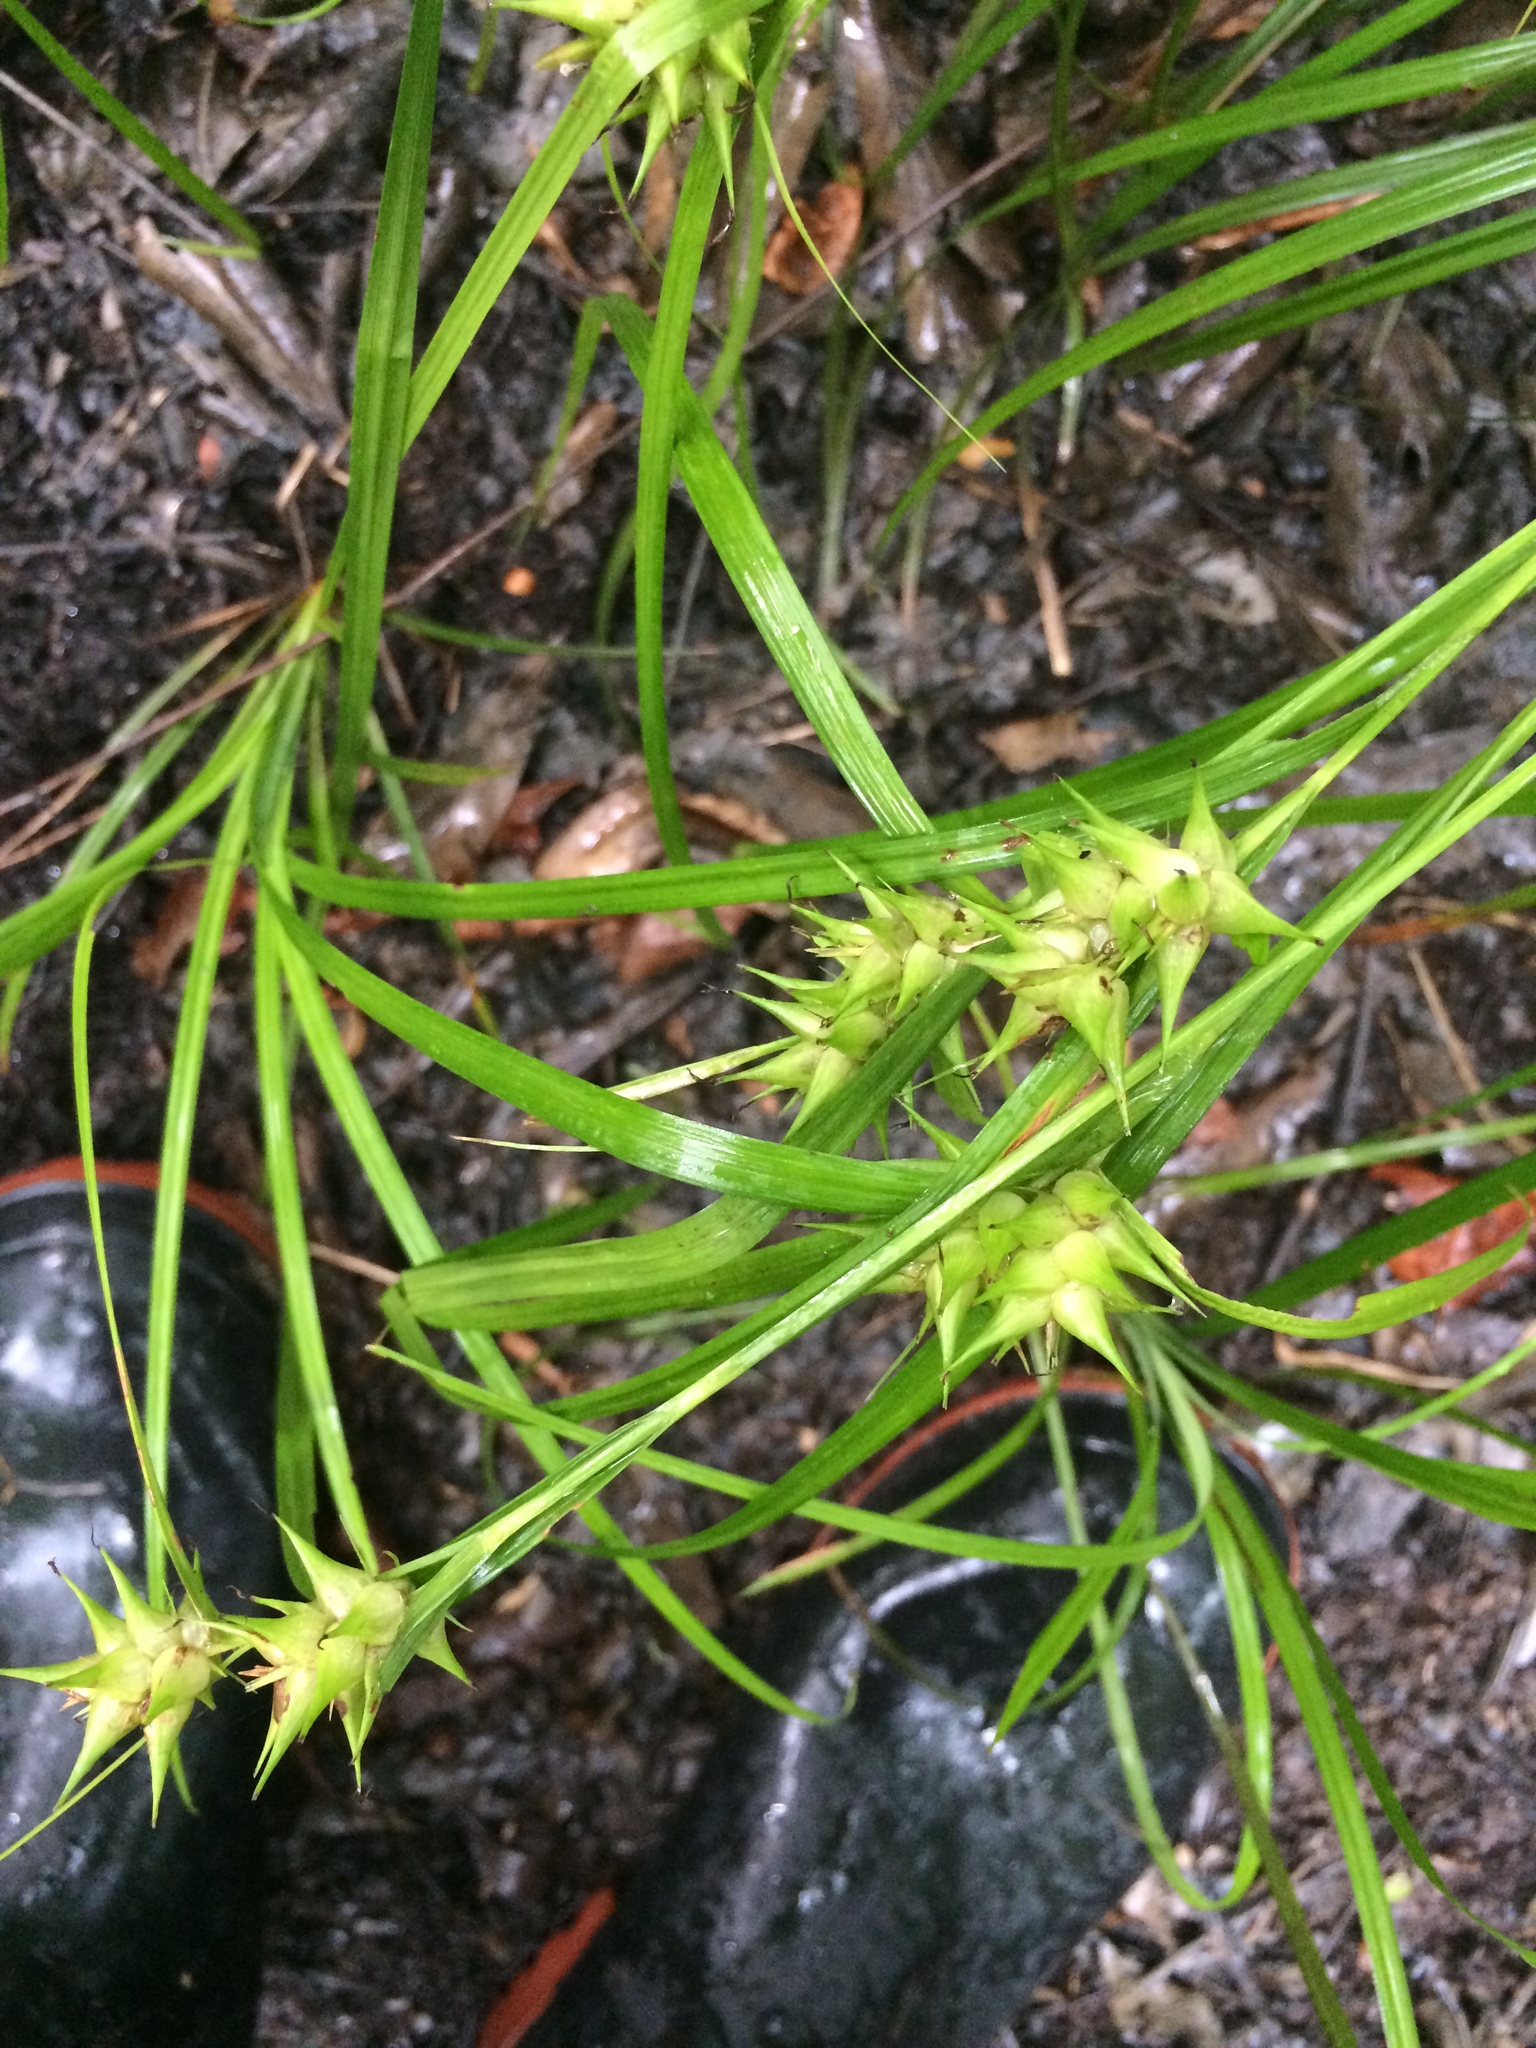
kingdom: Plantae
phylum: Tracheophyta
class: Liliopsida
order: Poales
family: Cyperaceae
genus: Carex
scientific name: Carex intumescens
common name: Greater bladder sedge
